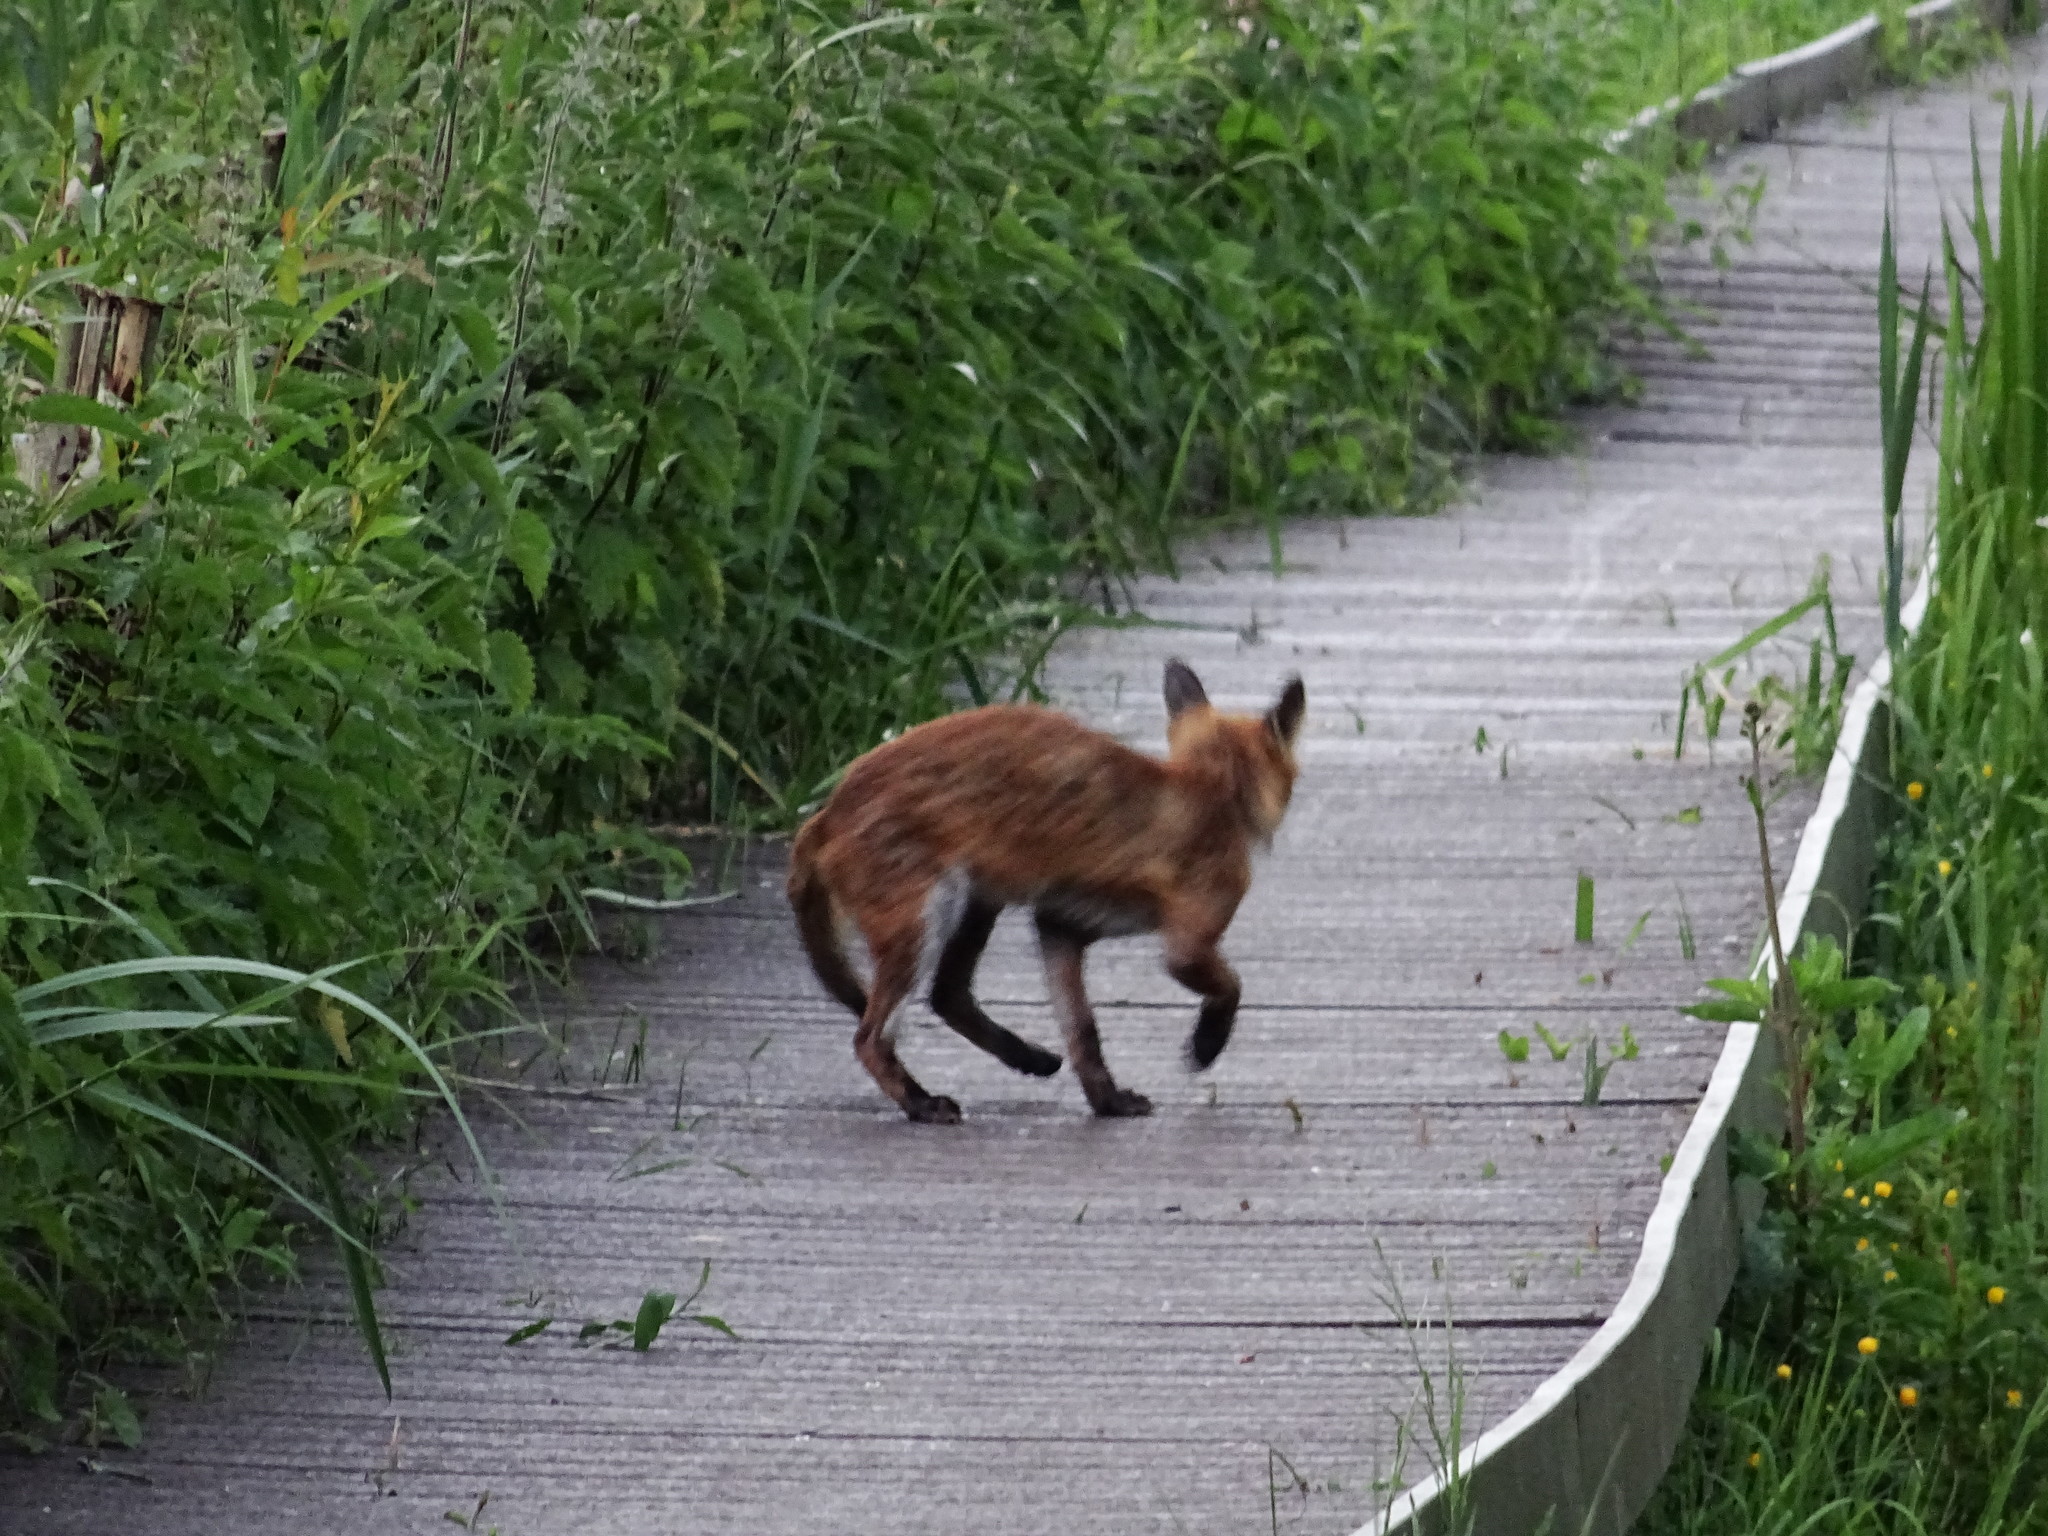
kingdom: Animalia
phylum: Chordata
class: Mammalia
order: Carnivora
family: Canidae
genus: Vulpes
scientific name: Vulpes vulpes
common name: Red fox
